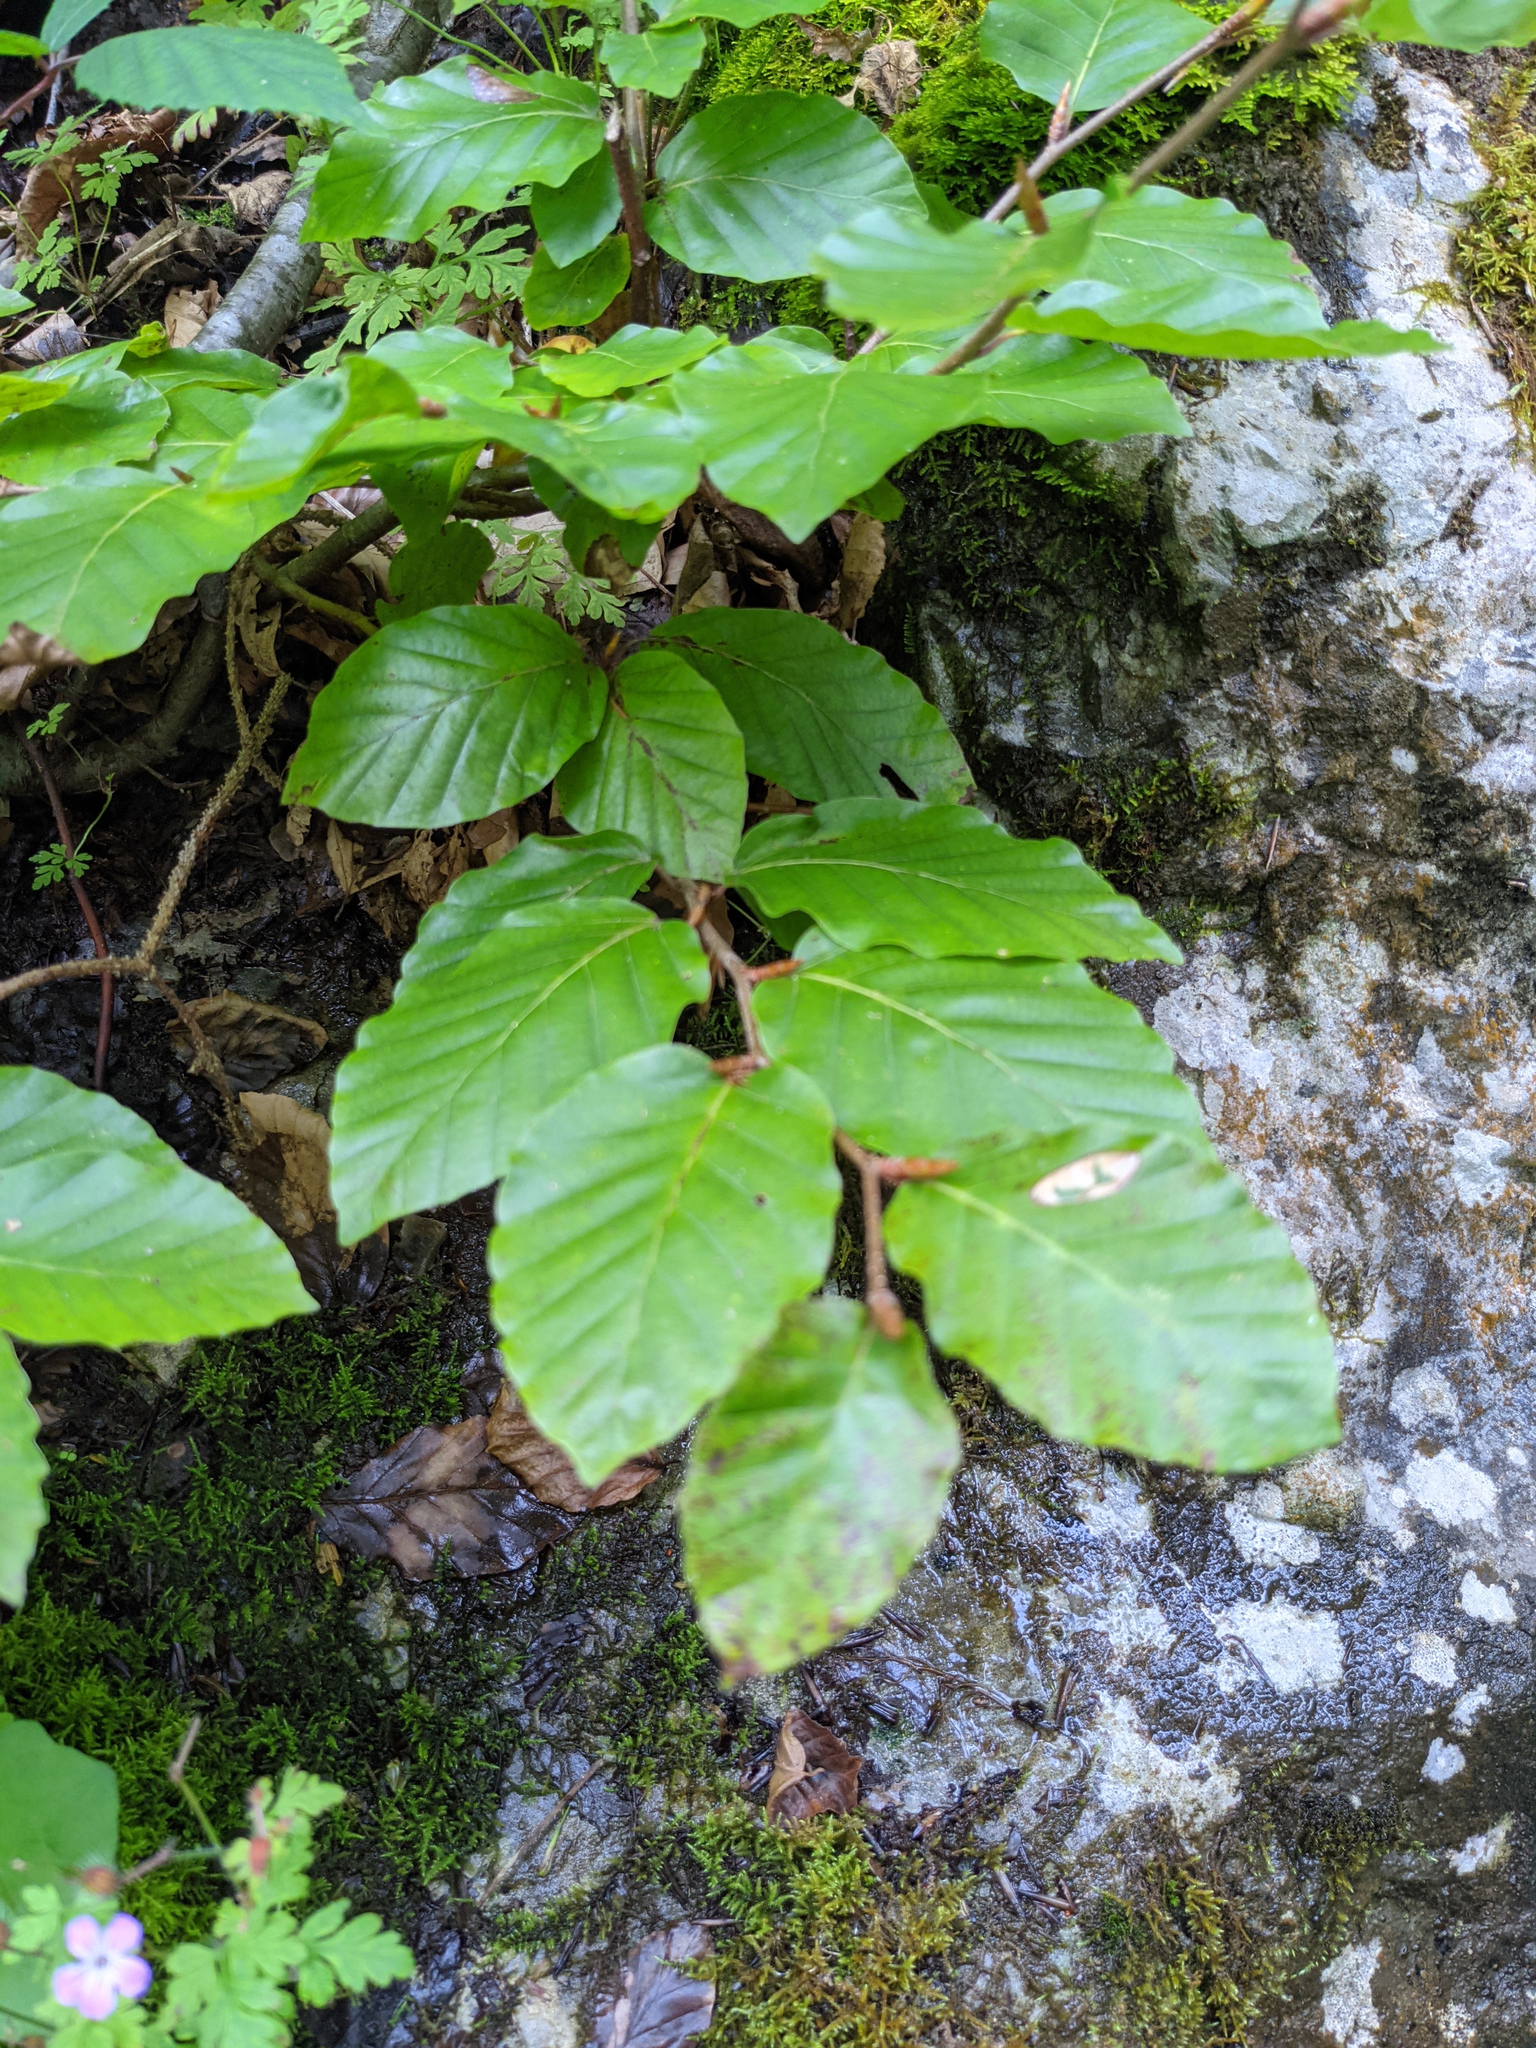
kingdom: Plantae
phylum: Tracheophyta
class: Magnoliopsida
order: Fagales
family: Fagaceae
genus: Fagus
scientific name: Fagus sylvatica
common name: Beech
